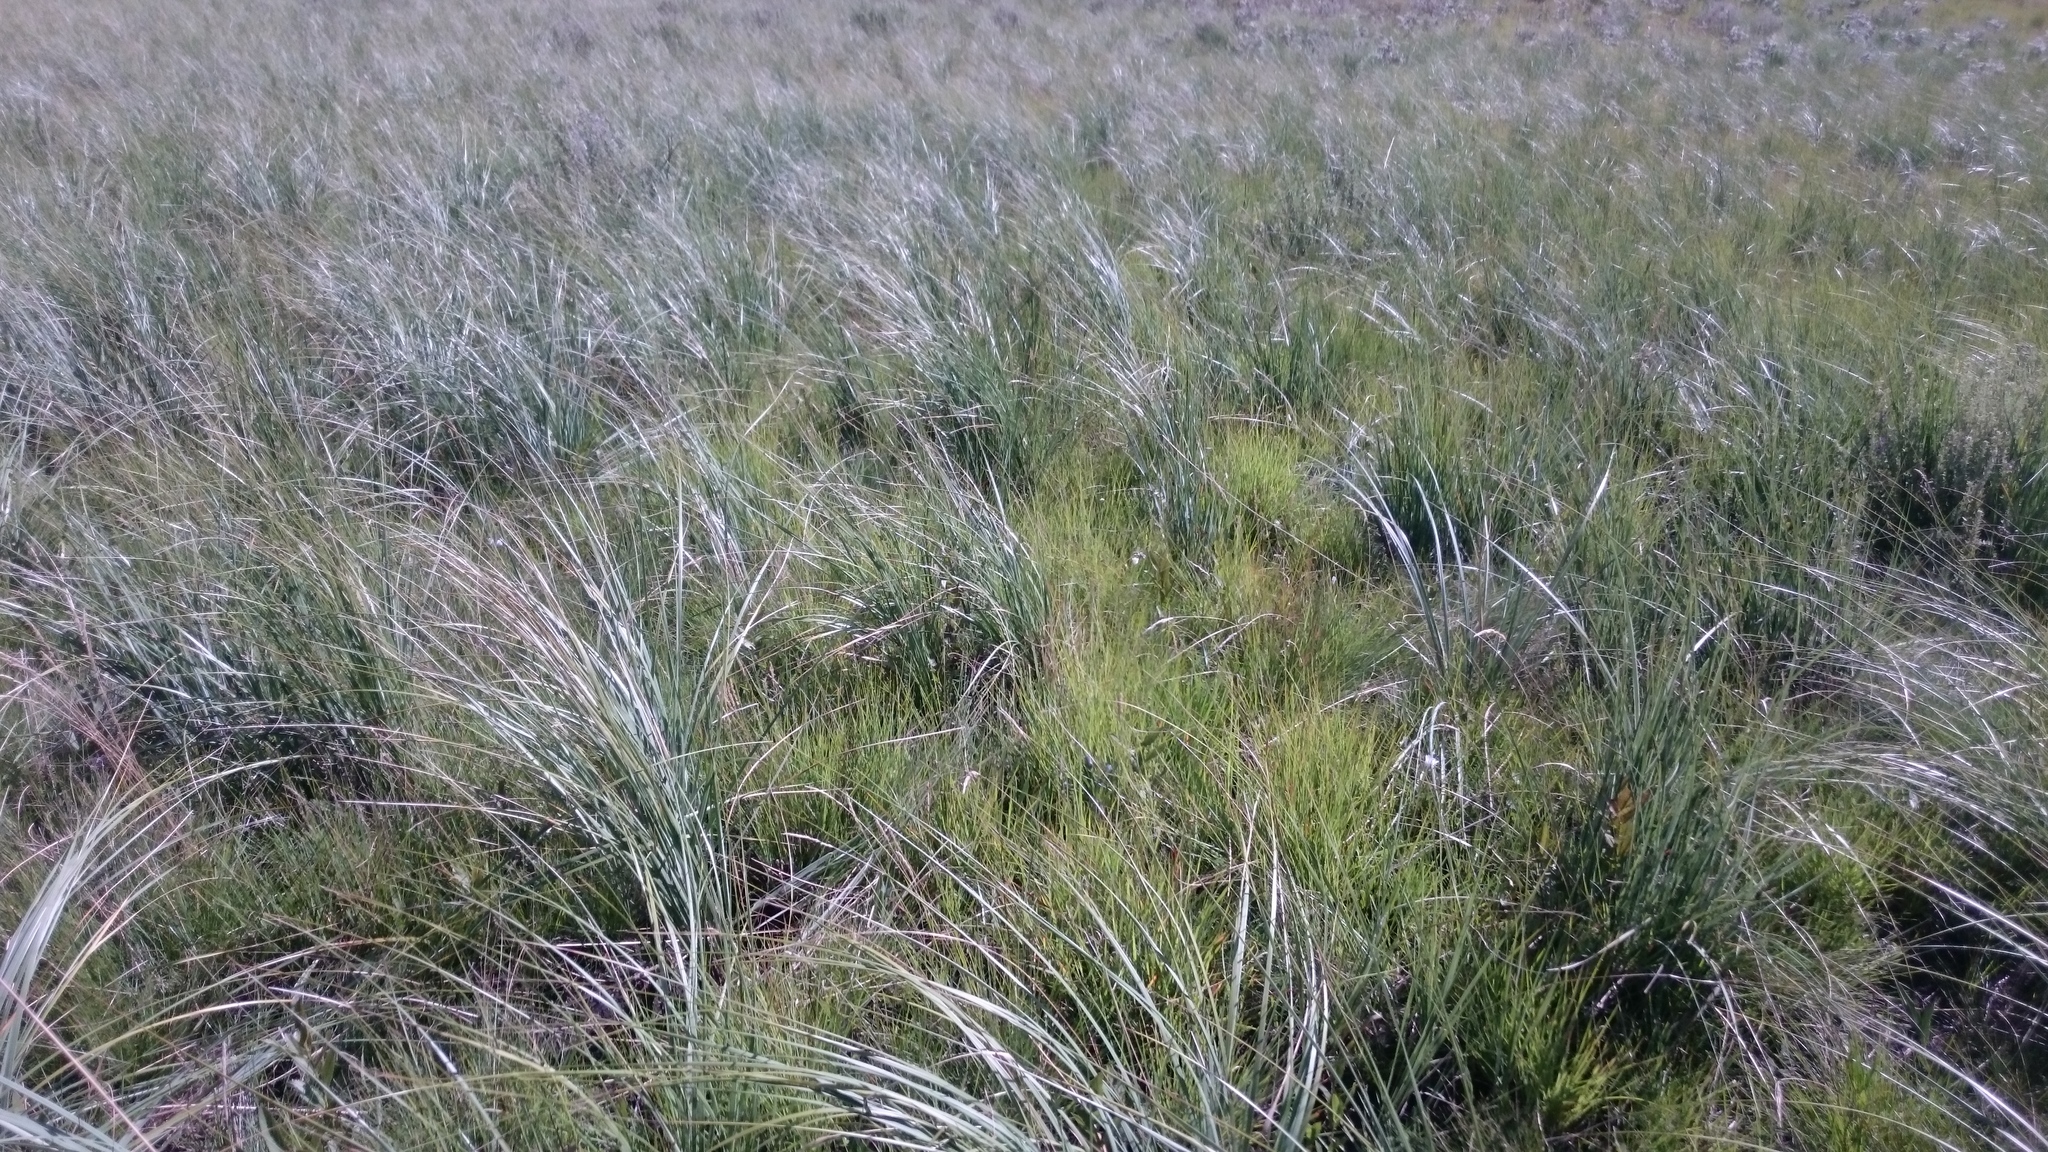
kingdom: Plantae
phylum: Tracheophyta
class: Liliopsida
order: Poales
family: Poaceae
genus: Festuca
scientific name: Festuca costata
